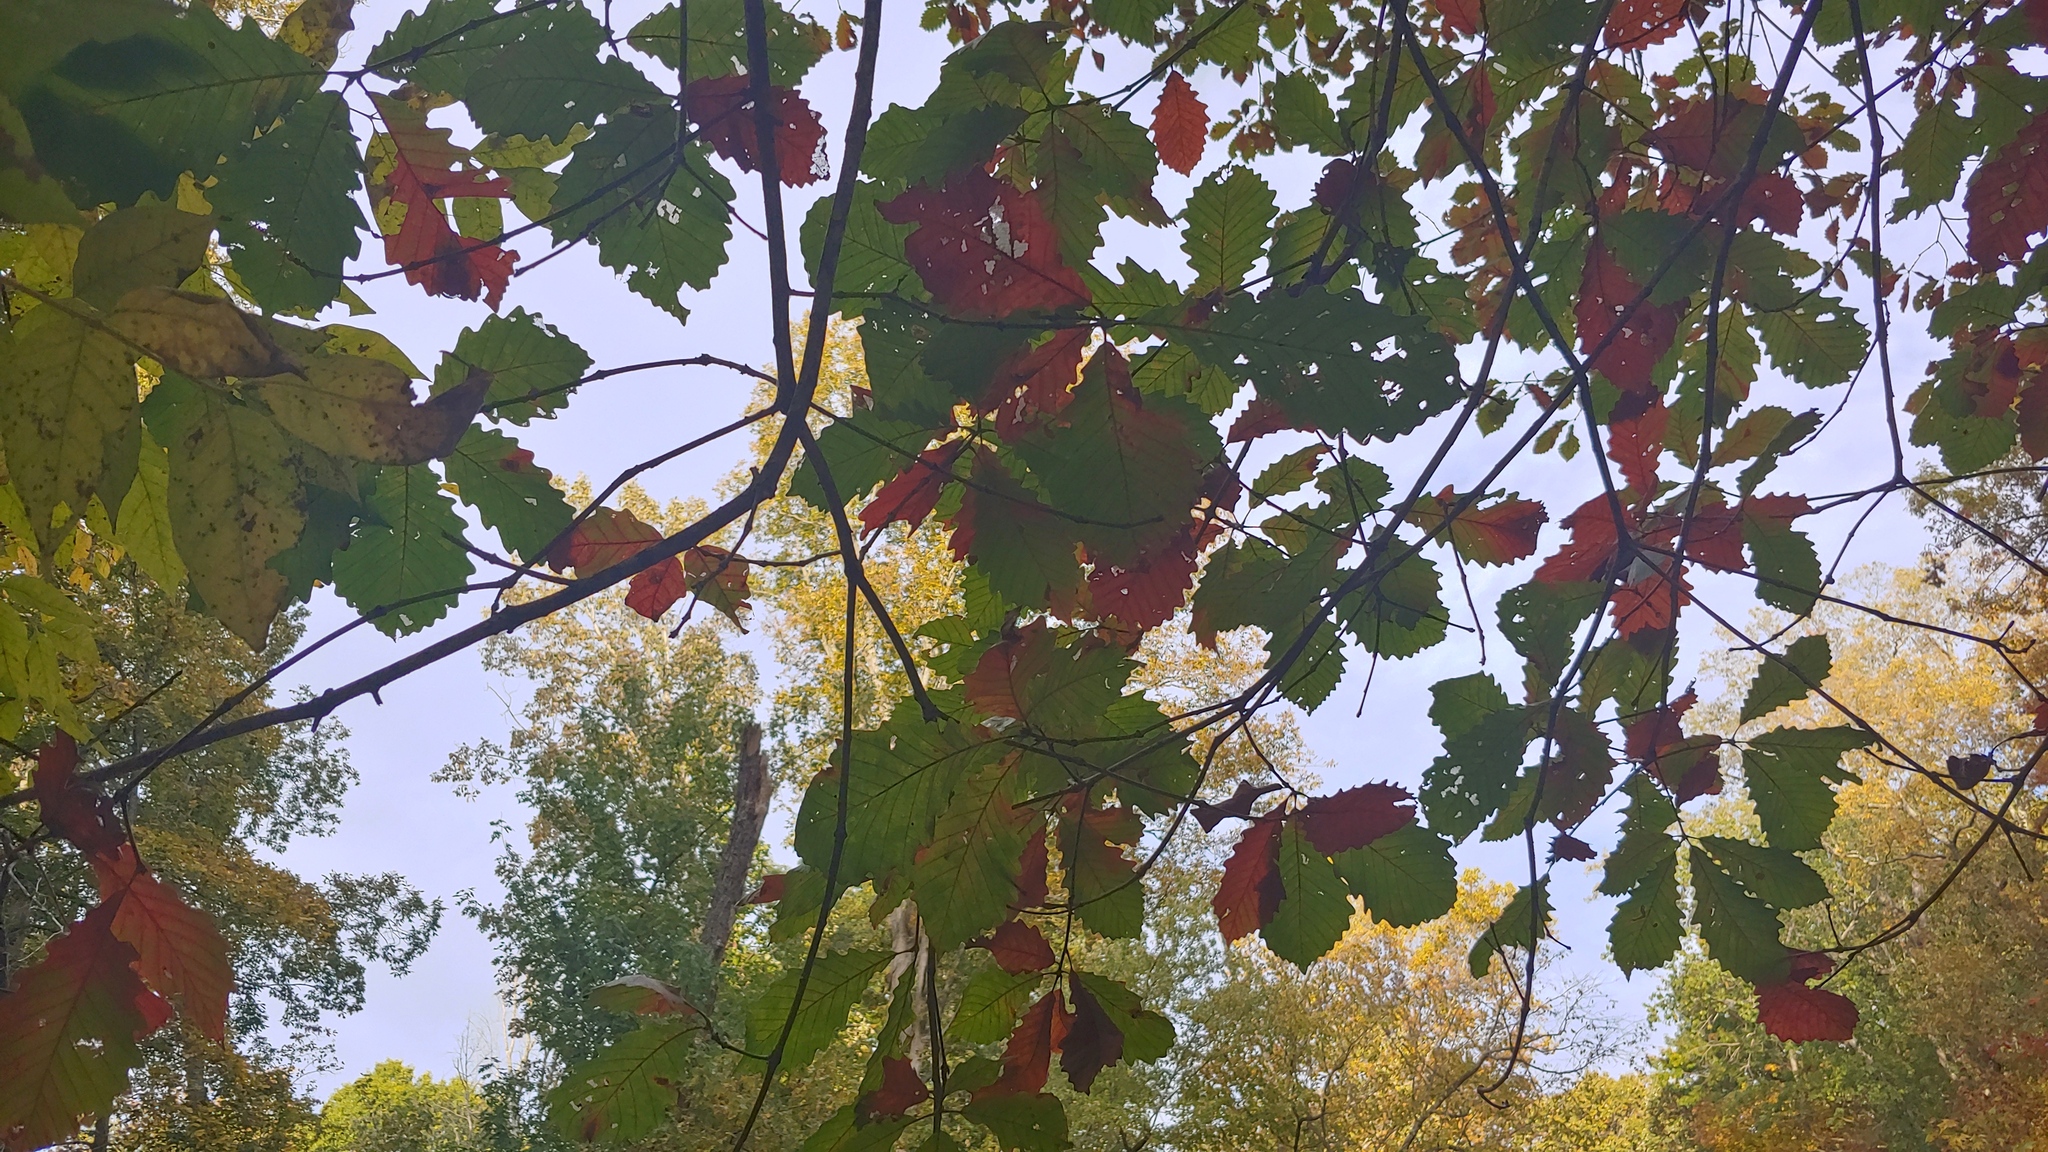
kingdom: Plantae
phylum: Tracheophyta
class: Magnoliopsida
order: Fagales
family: Fagaceae
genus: Quercus
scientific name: Quercus michauxii
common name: Swamp chestnut oak
